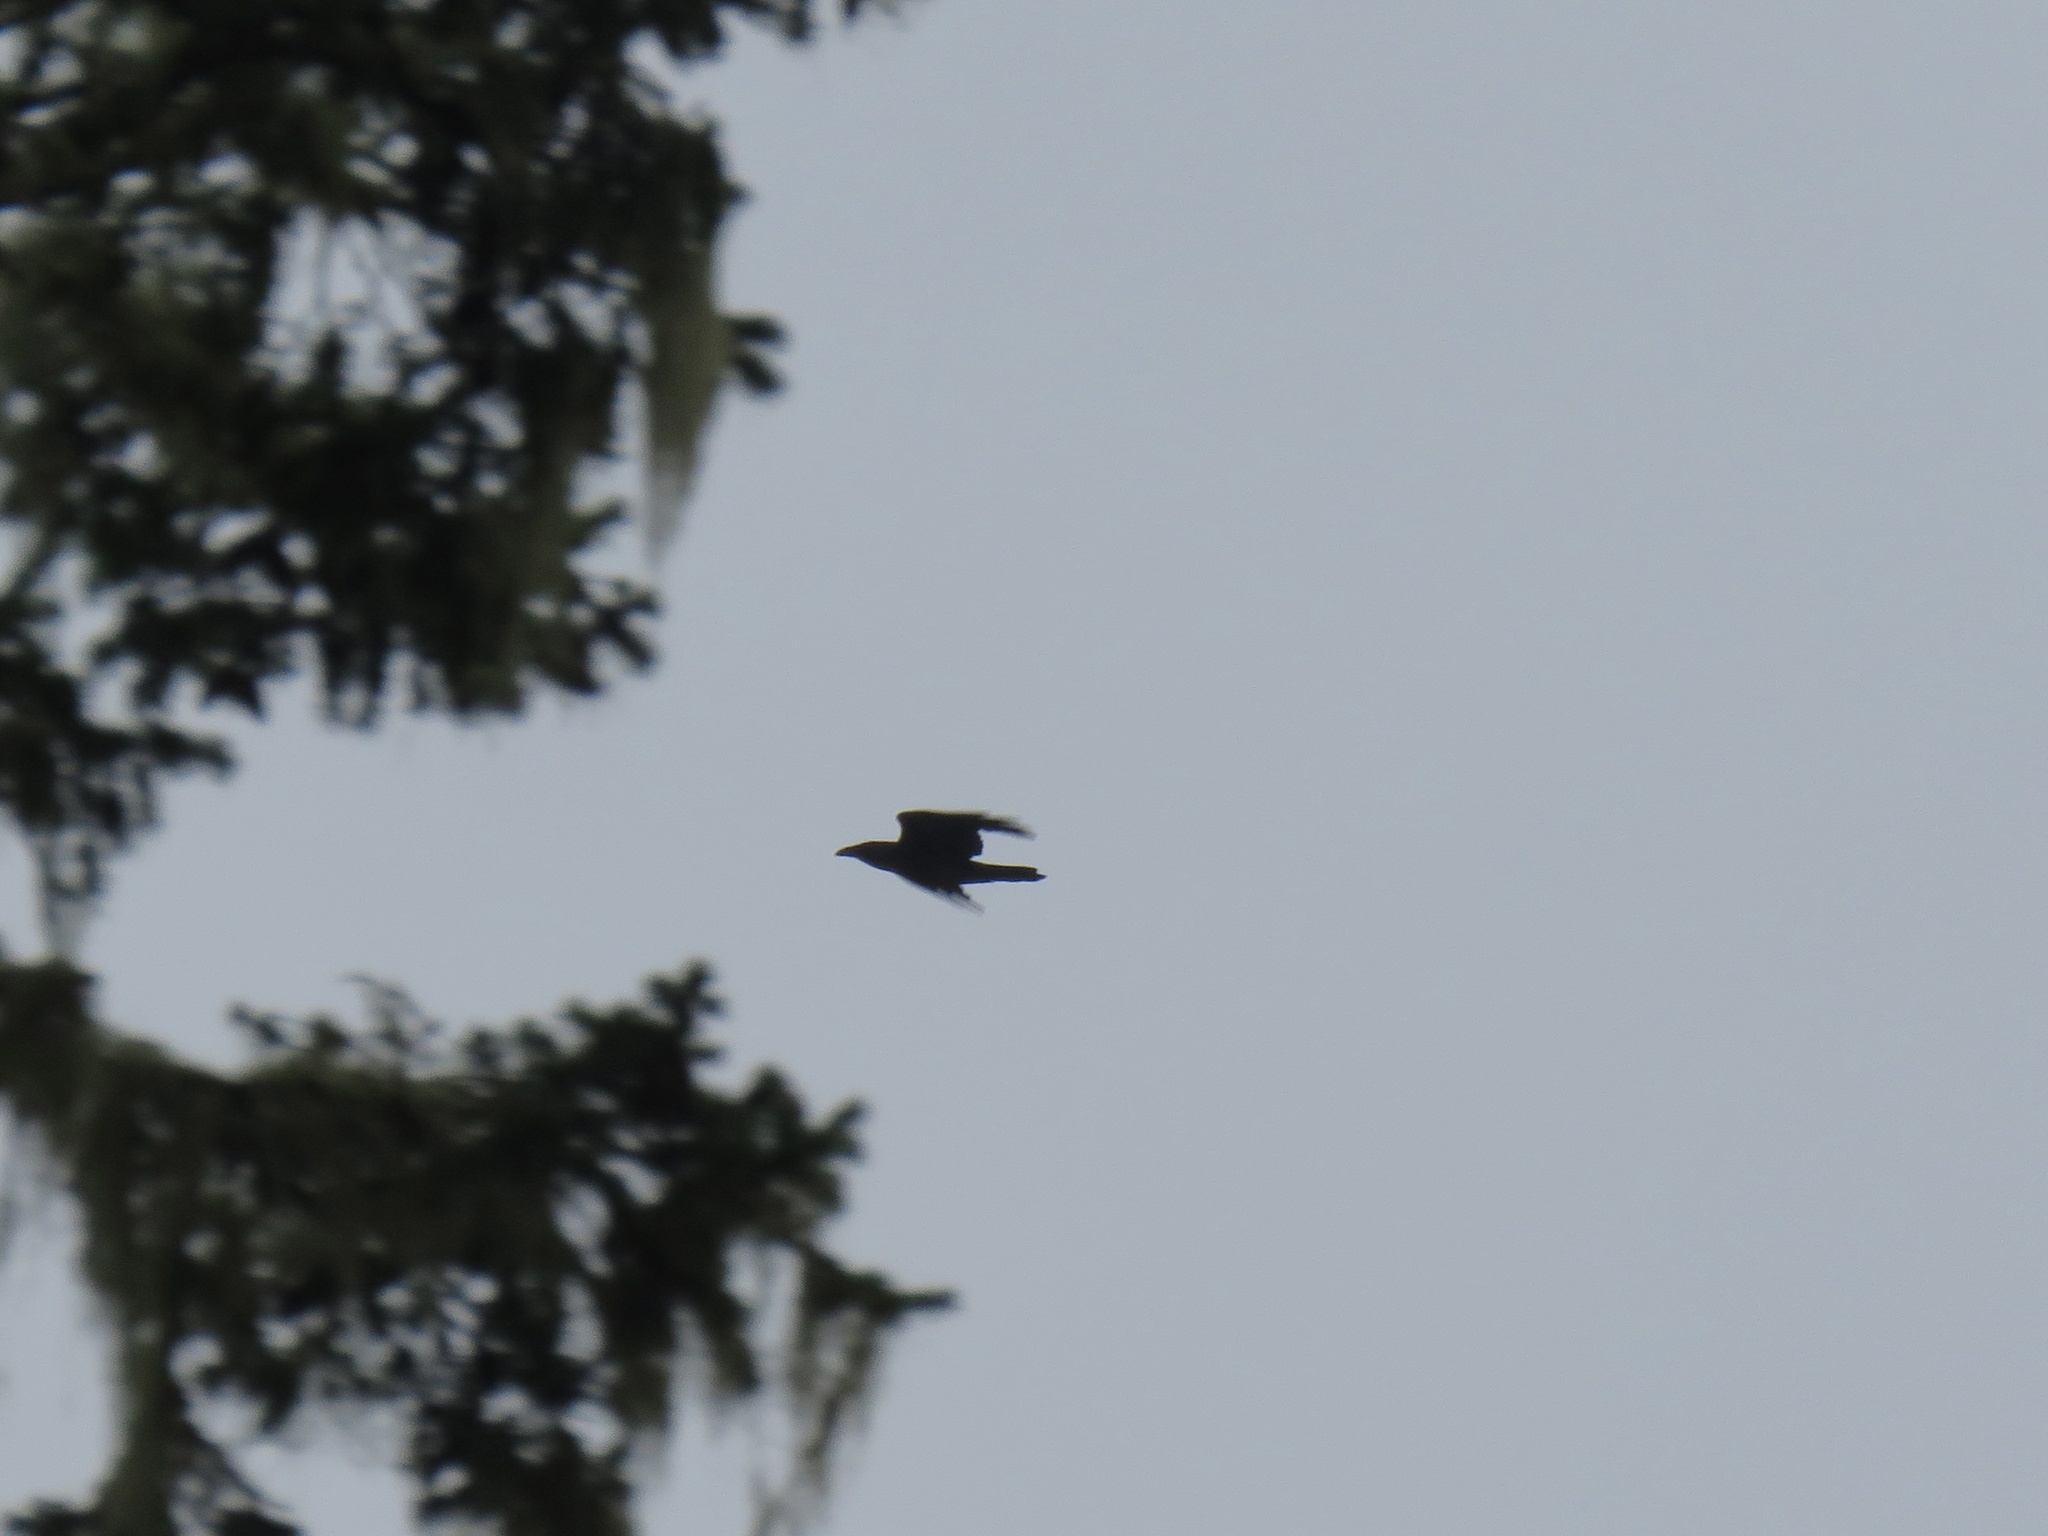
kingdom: Animalia
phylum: Chordata
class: Aves
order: Passeriformes
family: Corvidae
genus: Corvus
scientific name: Corvus corax
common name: Common raven
